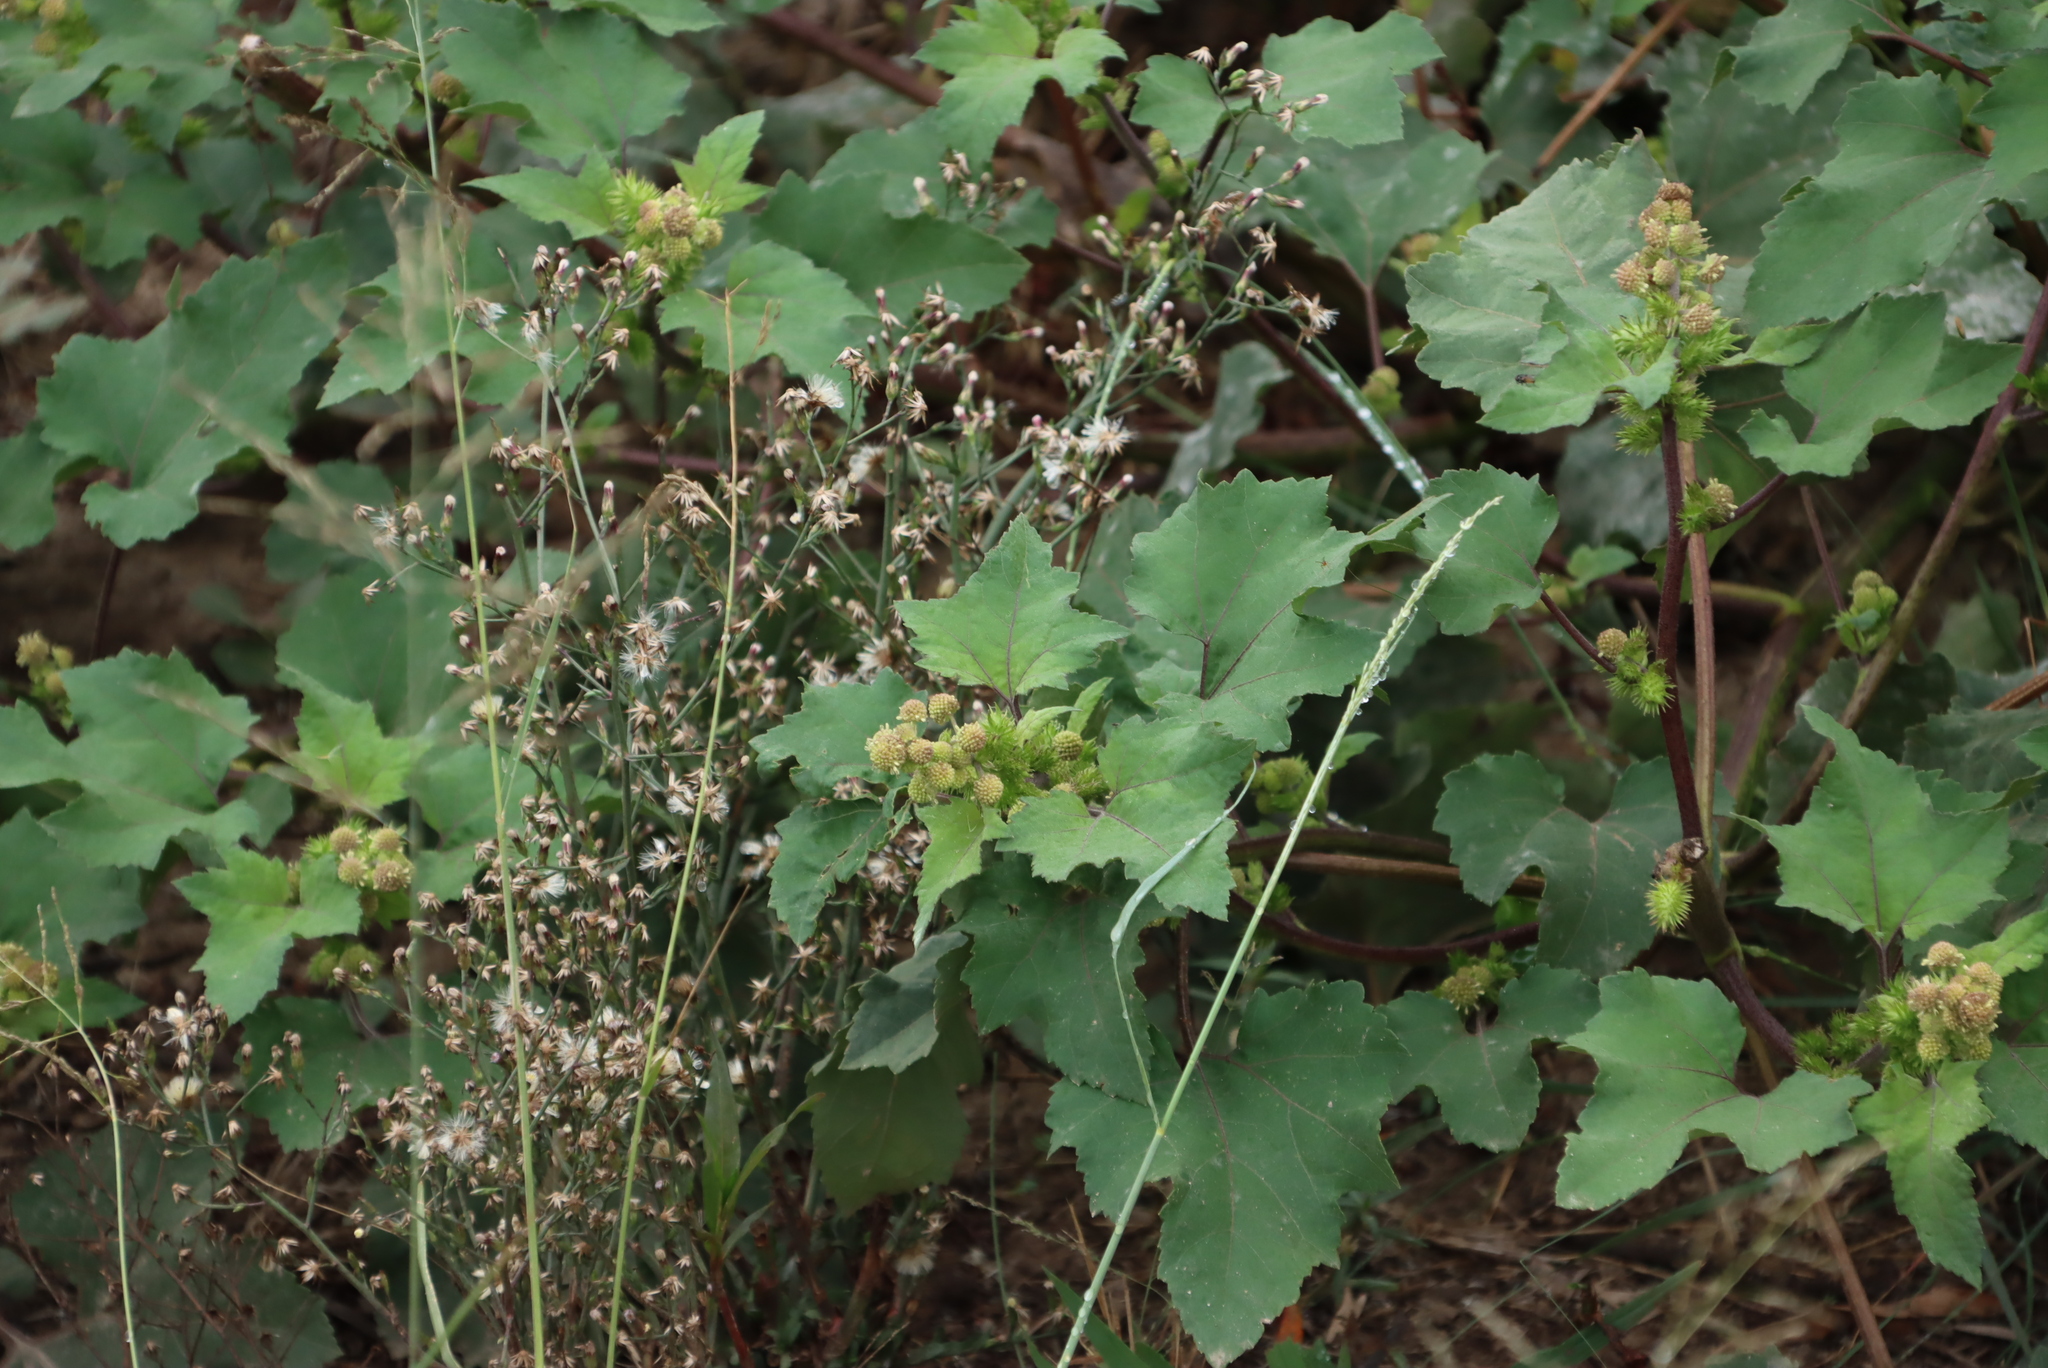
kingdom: Plantae
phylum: Tracheophyta
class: Magnoliopsida
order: Asterales
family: Asteraceae
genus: Xanthium
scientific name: Xanthium strumarium
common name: Rough cocklebur
